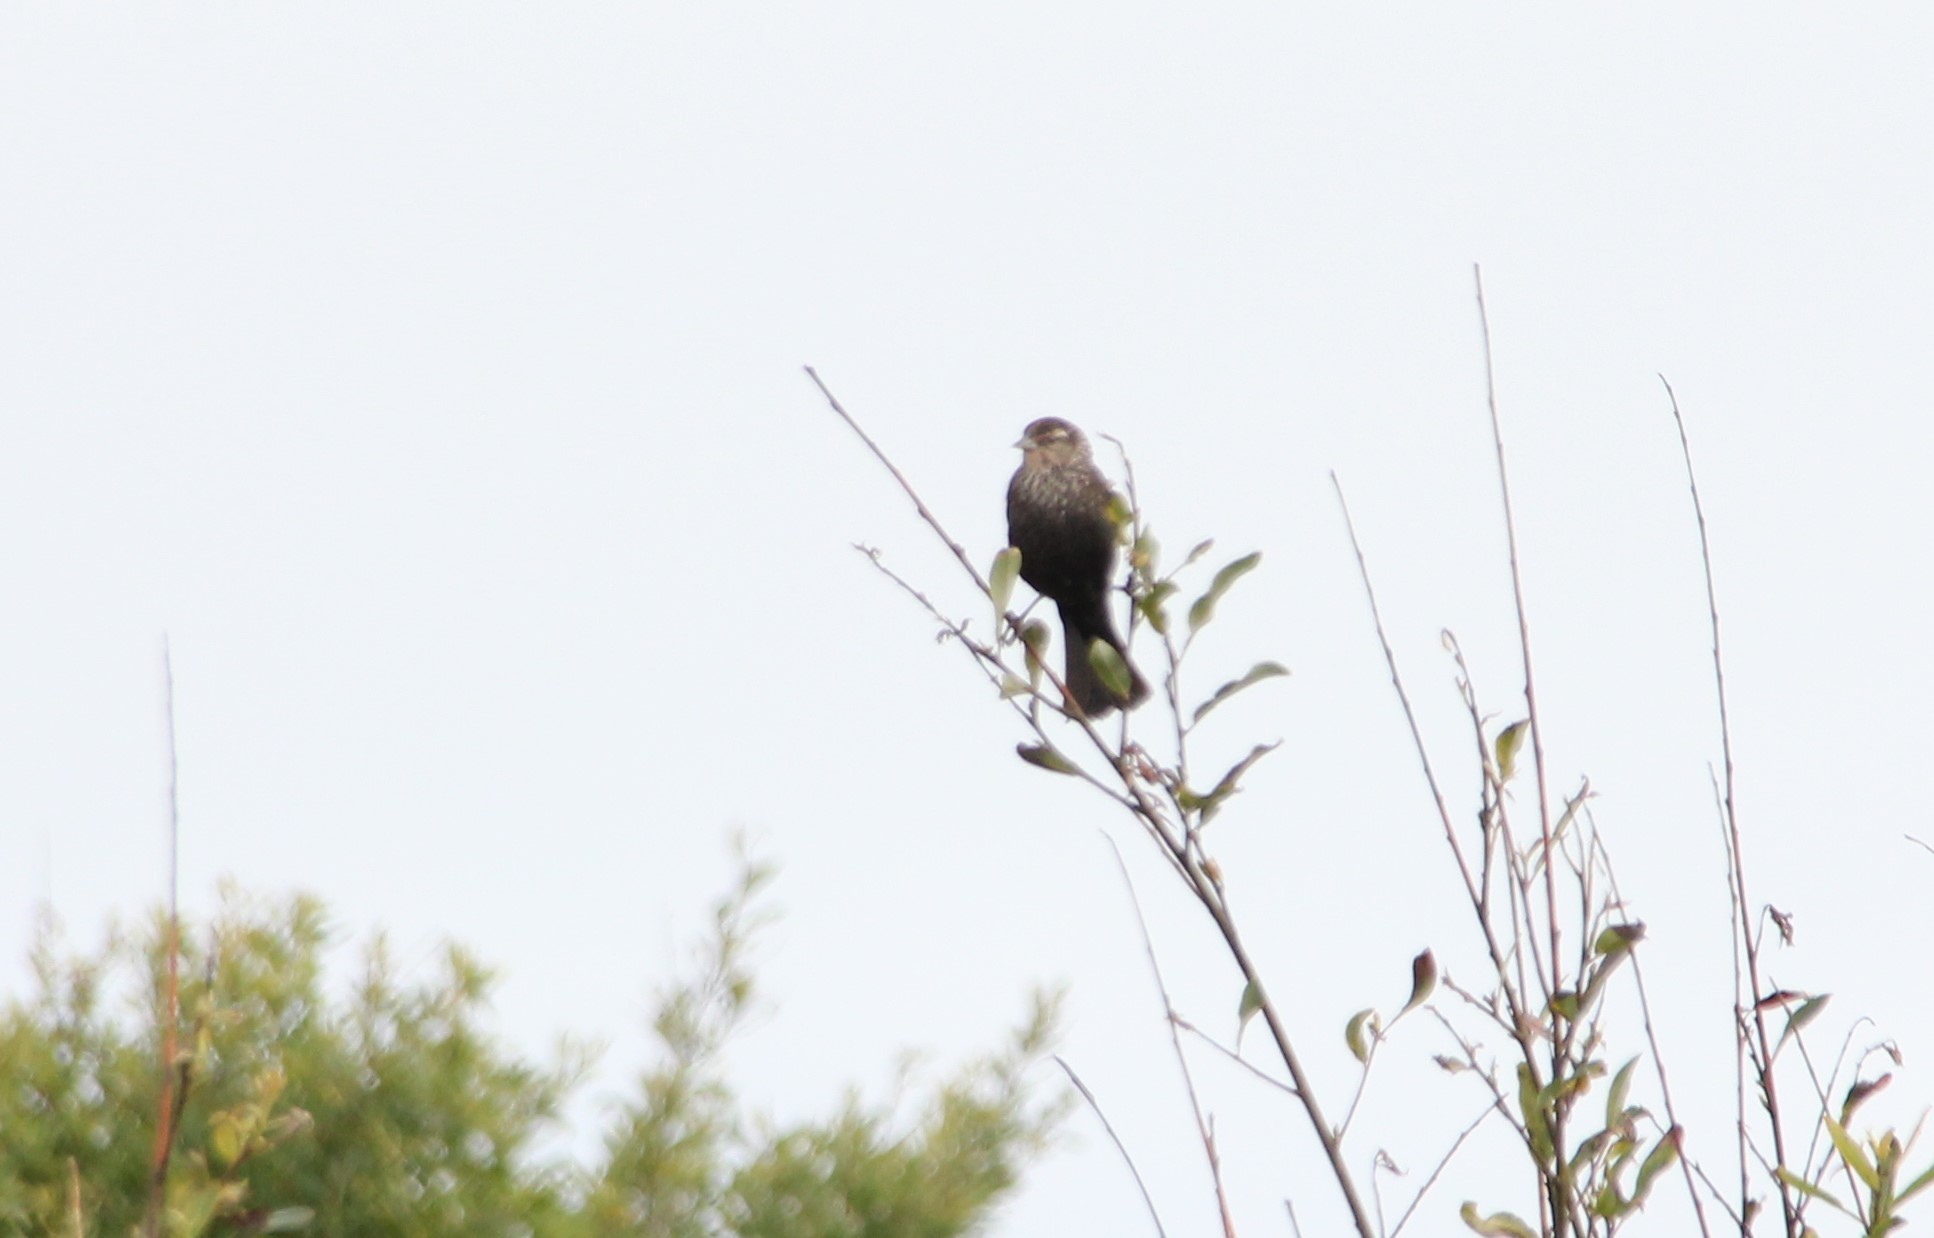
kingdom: Animalia
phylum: Chordata
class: Aves
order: Passeriformes
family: Icteridae
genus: Agelaius
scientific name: Agelaius phoeniceus
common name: Red-winged blackbird
